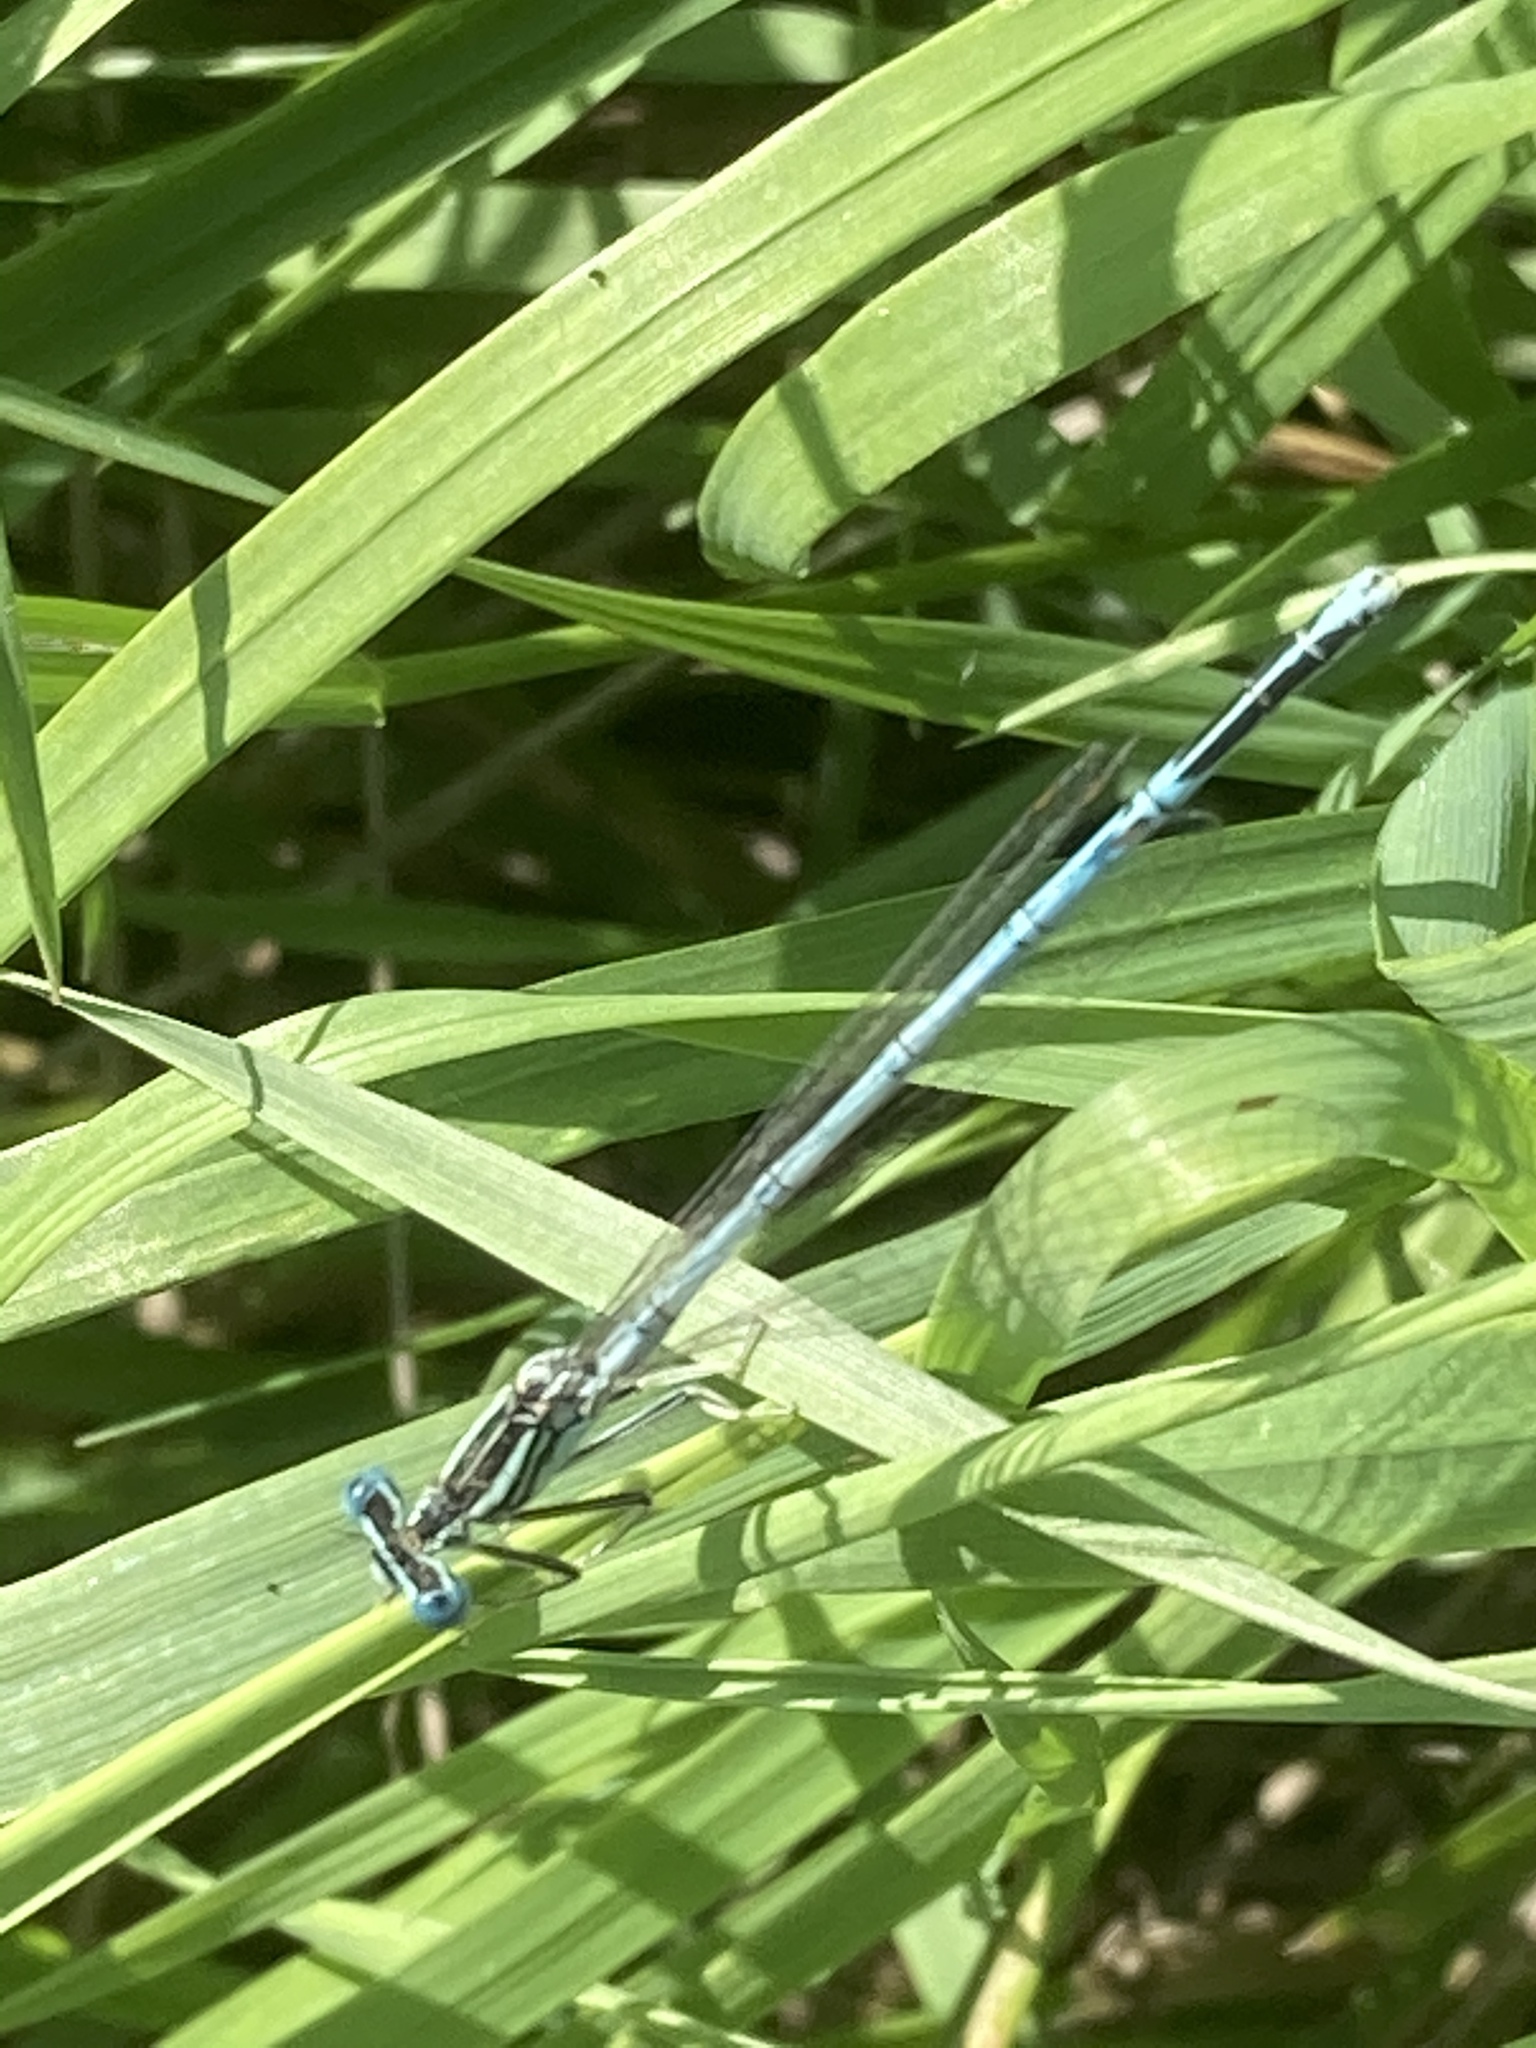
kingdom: Animalia
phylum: Arthropoda
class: Insecta
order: Odonata
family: Platycnemididae
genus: Platycnemis
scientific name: Platycnemis pennipes
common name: White-legged damselfly
